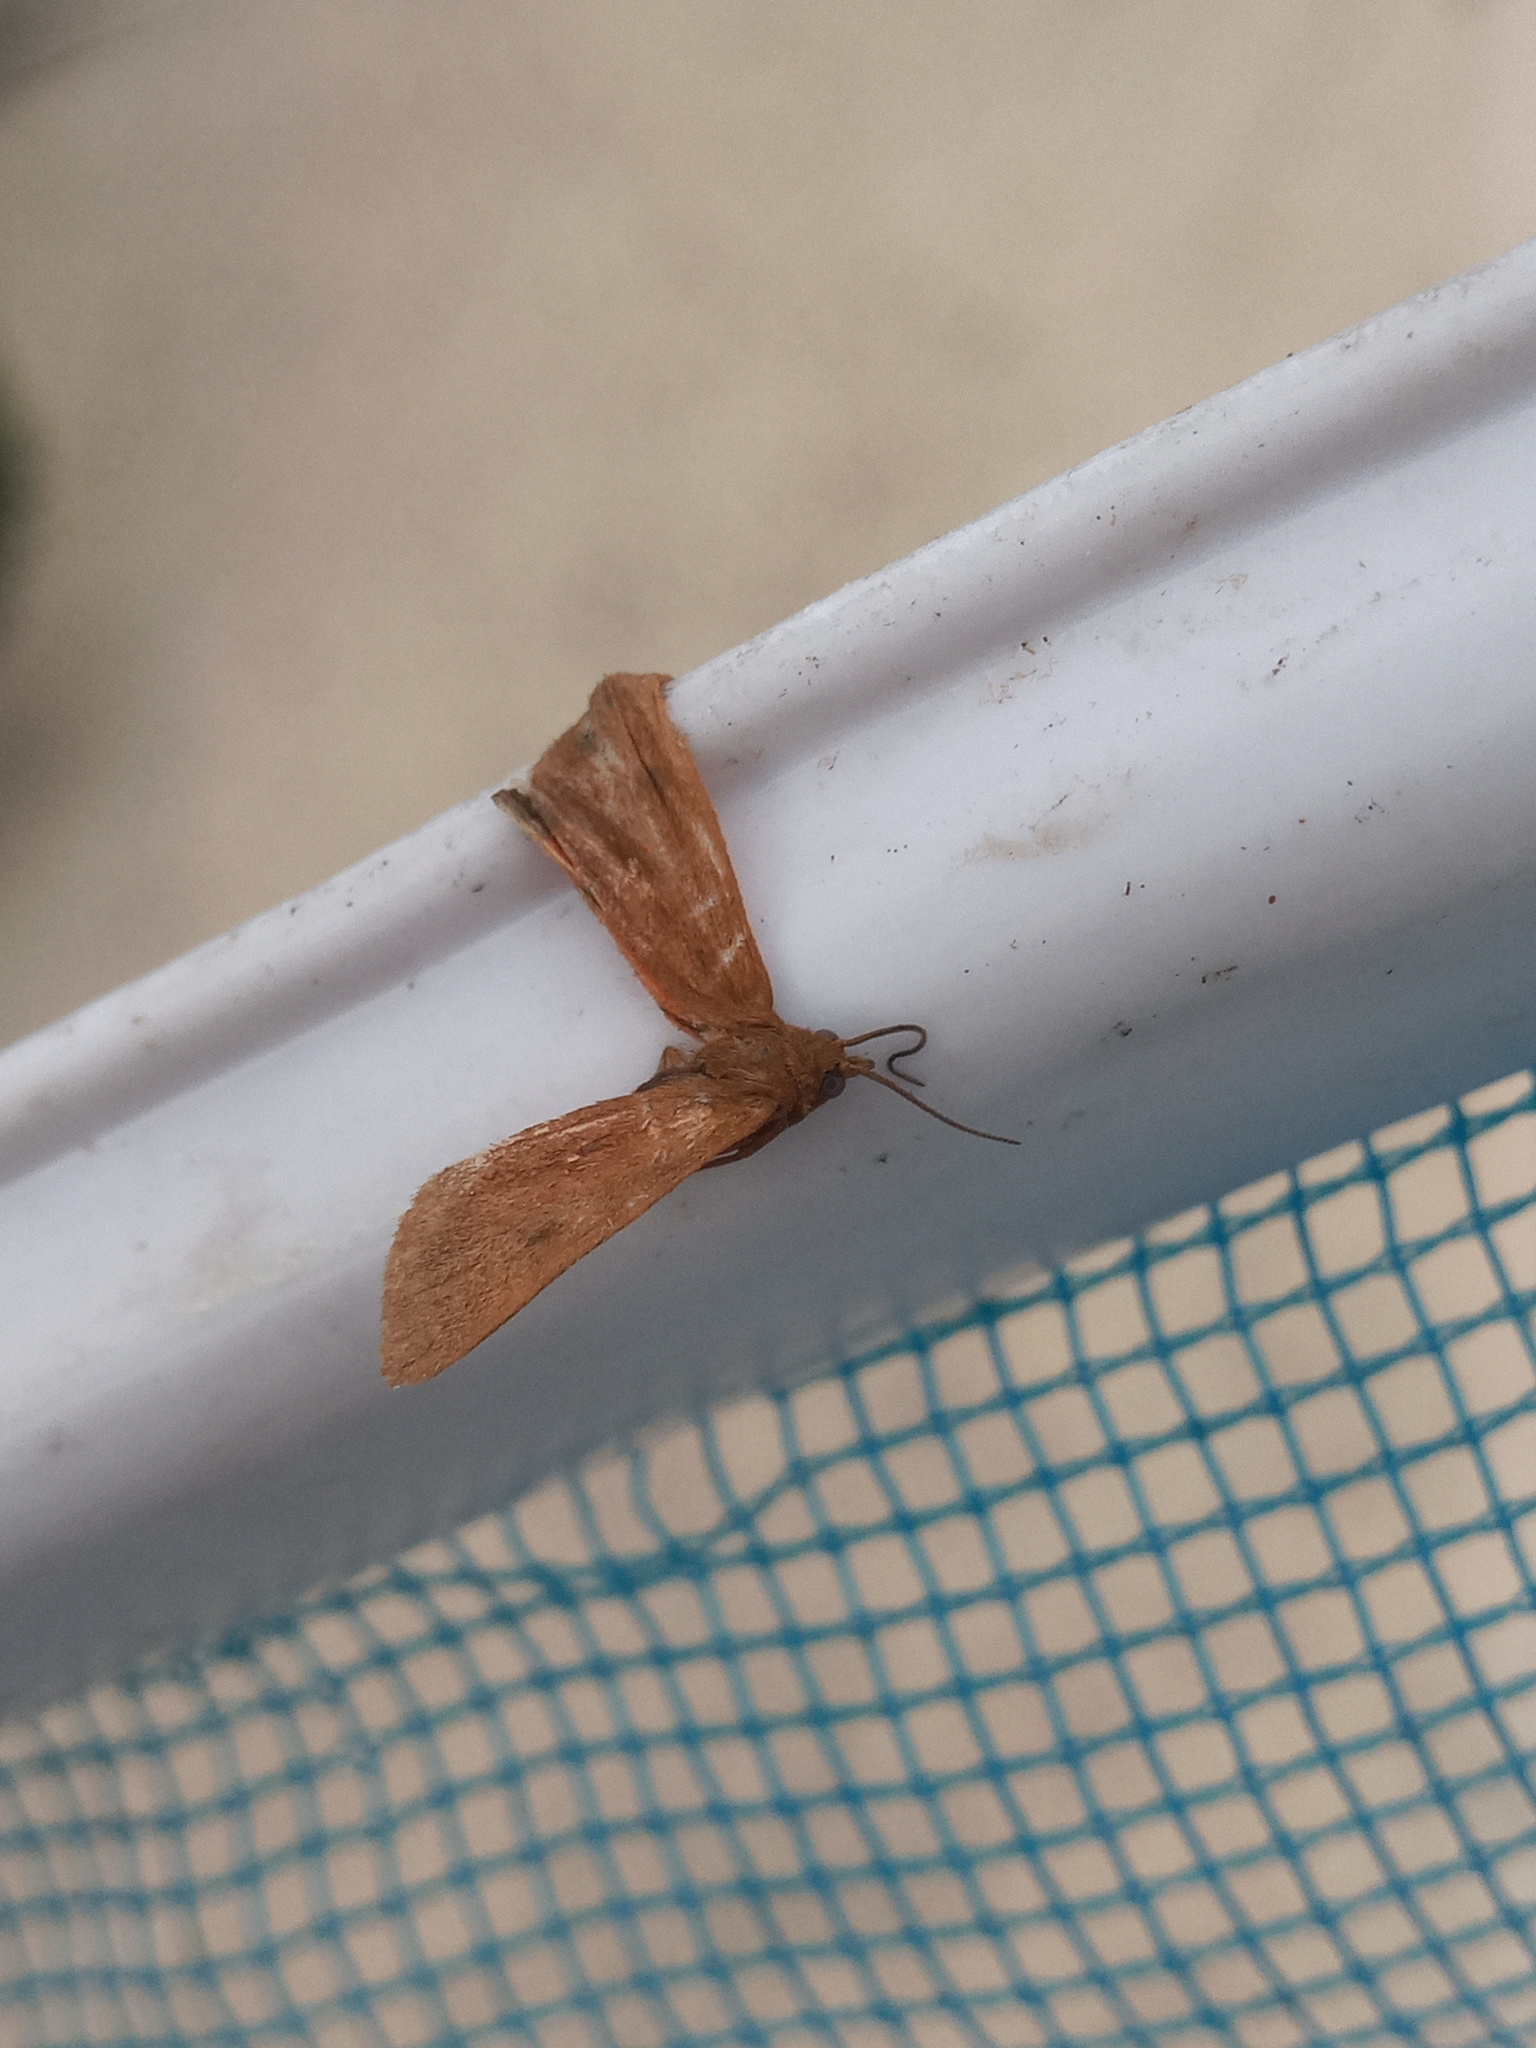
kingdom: Animalia
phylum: Arthropoda
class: Insecta
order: Lepidoptera
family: Erebidae
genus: Virbia
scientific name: Virbia aurantiaca
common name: Orange virbia moth
